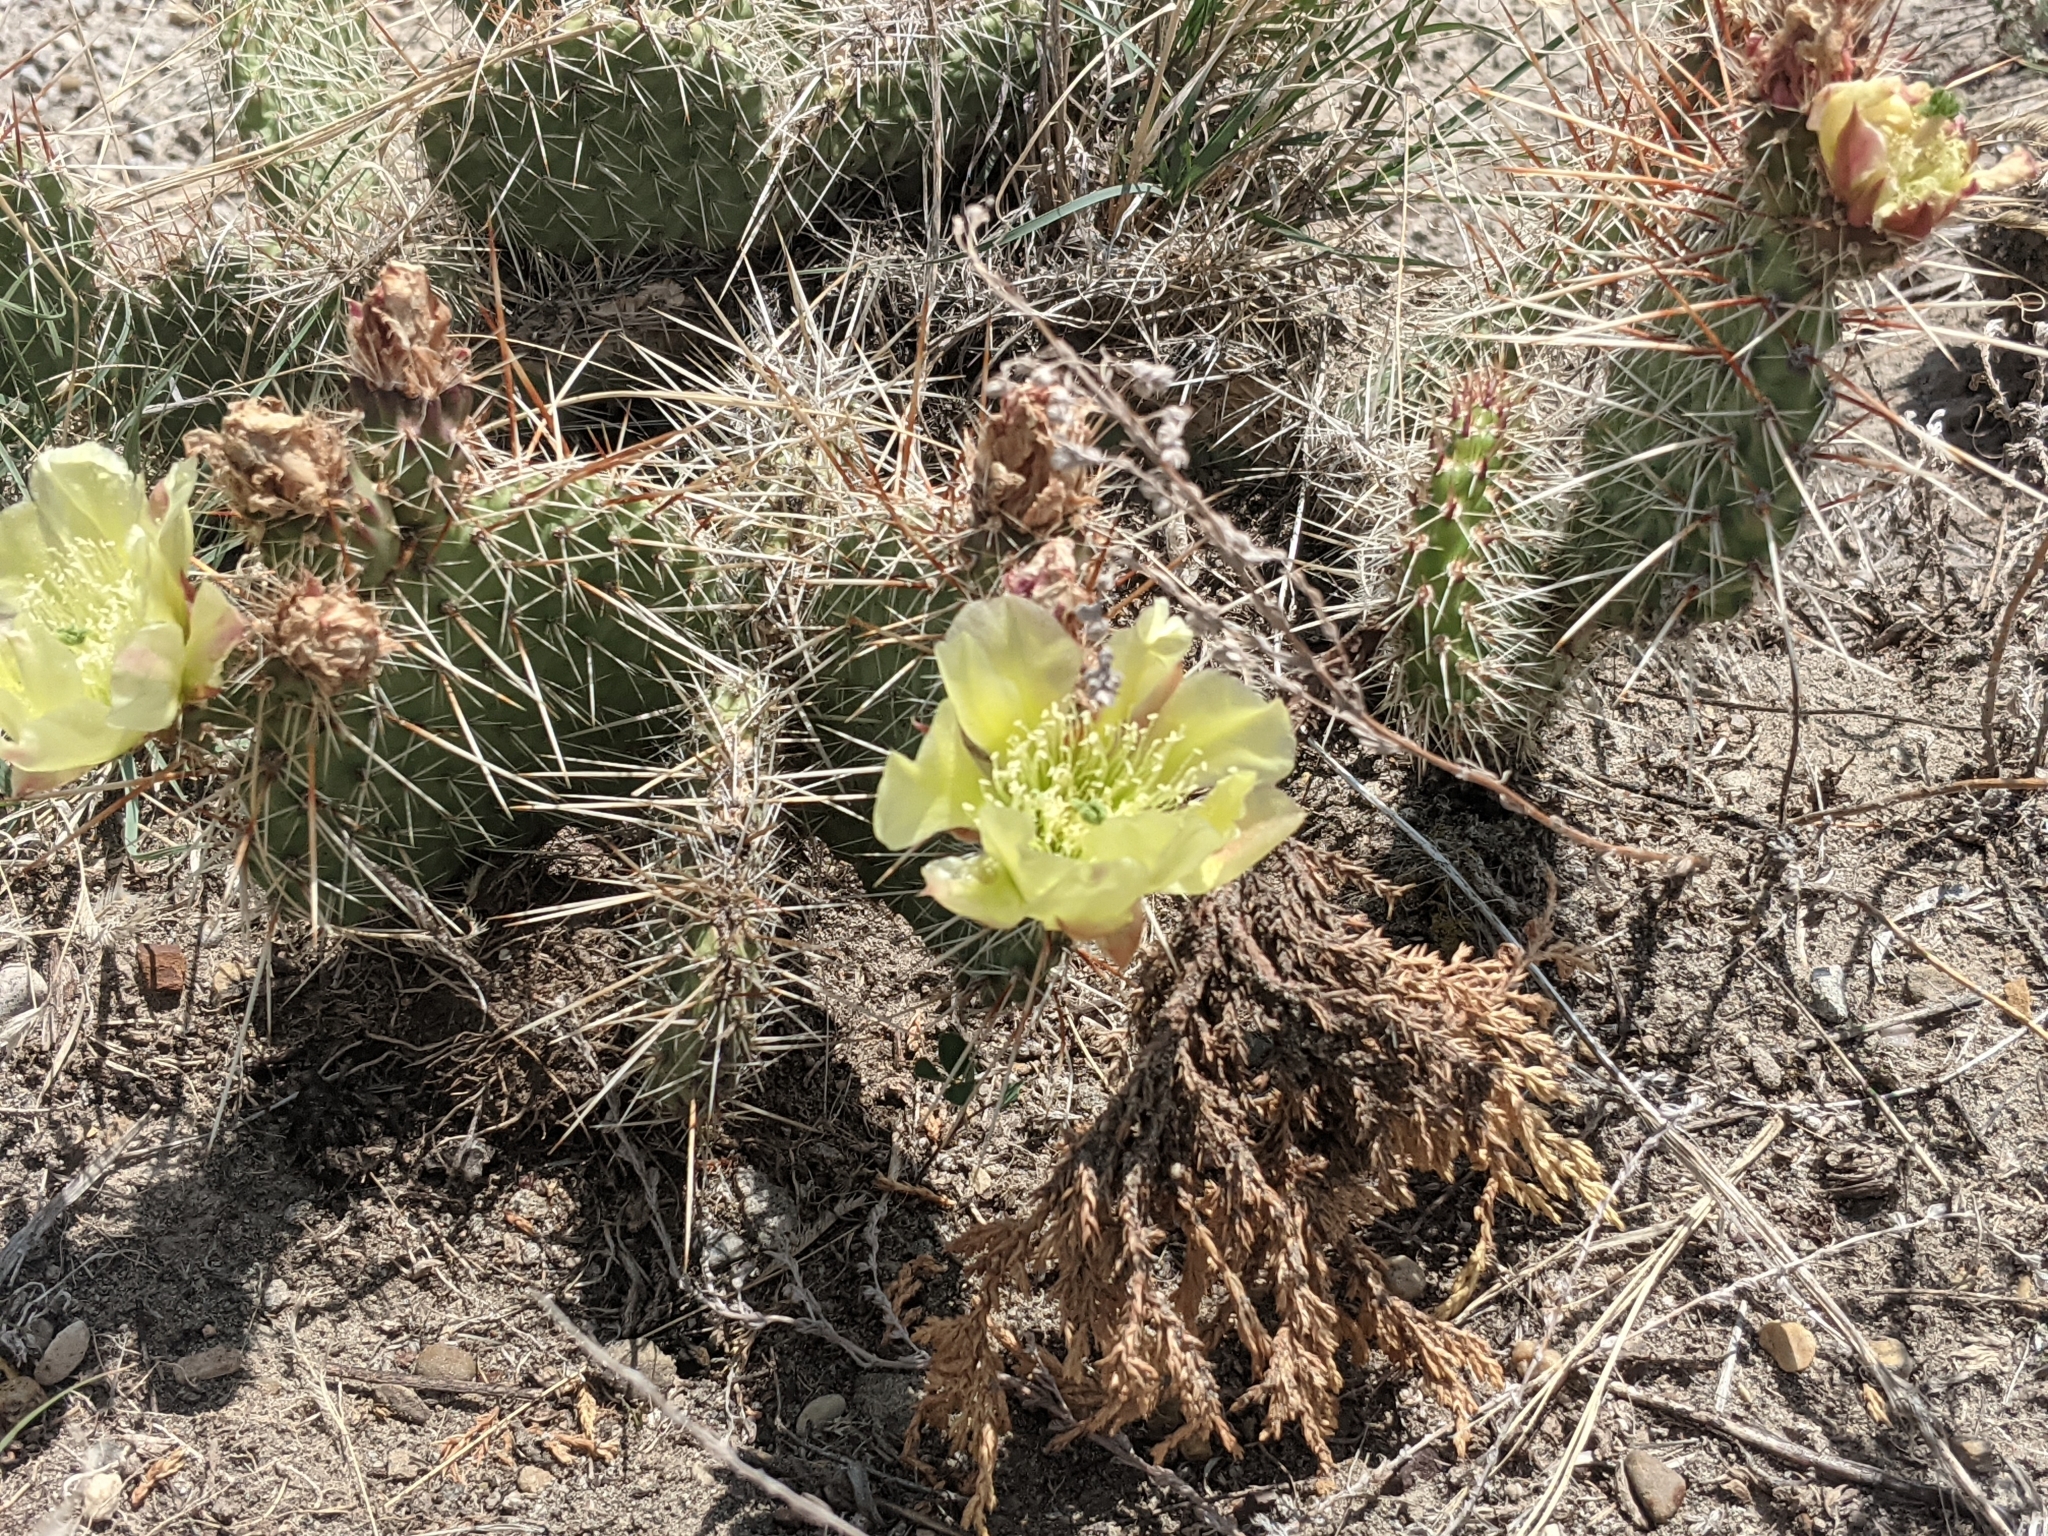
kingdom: Plantae
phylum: Tracheophyta
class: Magnoliopsida
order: Caryophyllales
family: Cactaceae
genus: Opuntia
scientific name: Opuntia polyacantha
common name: Plains prickly-pear
